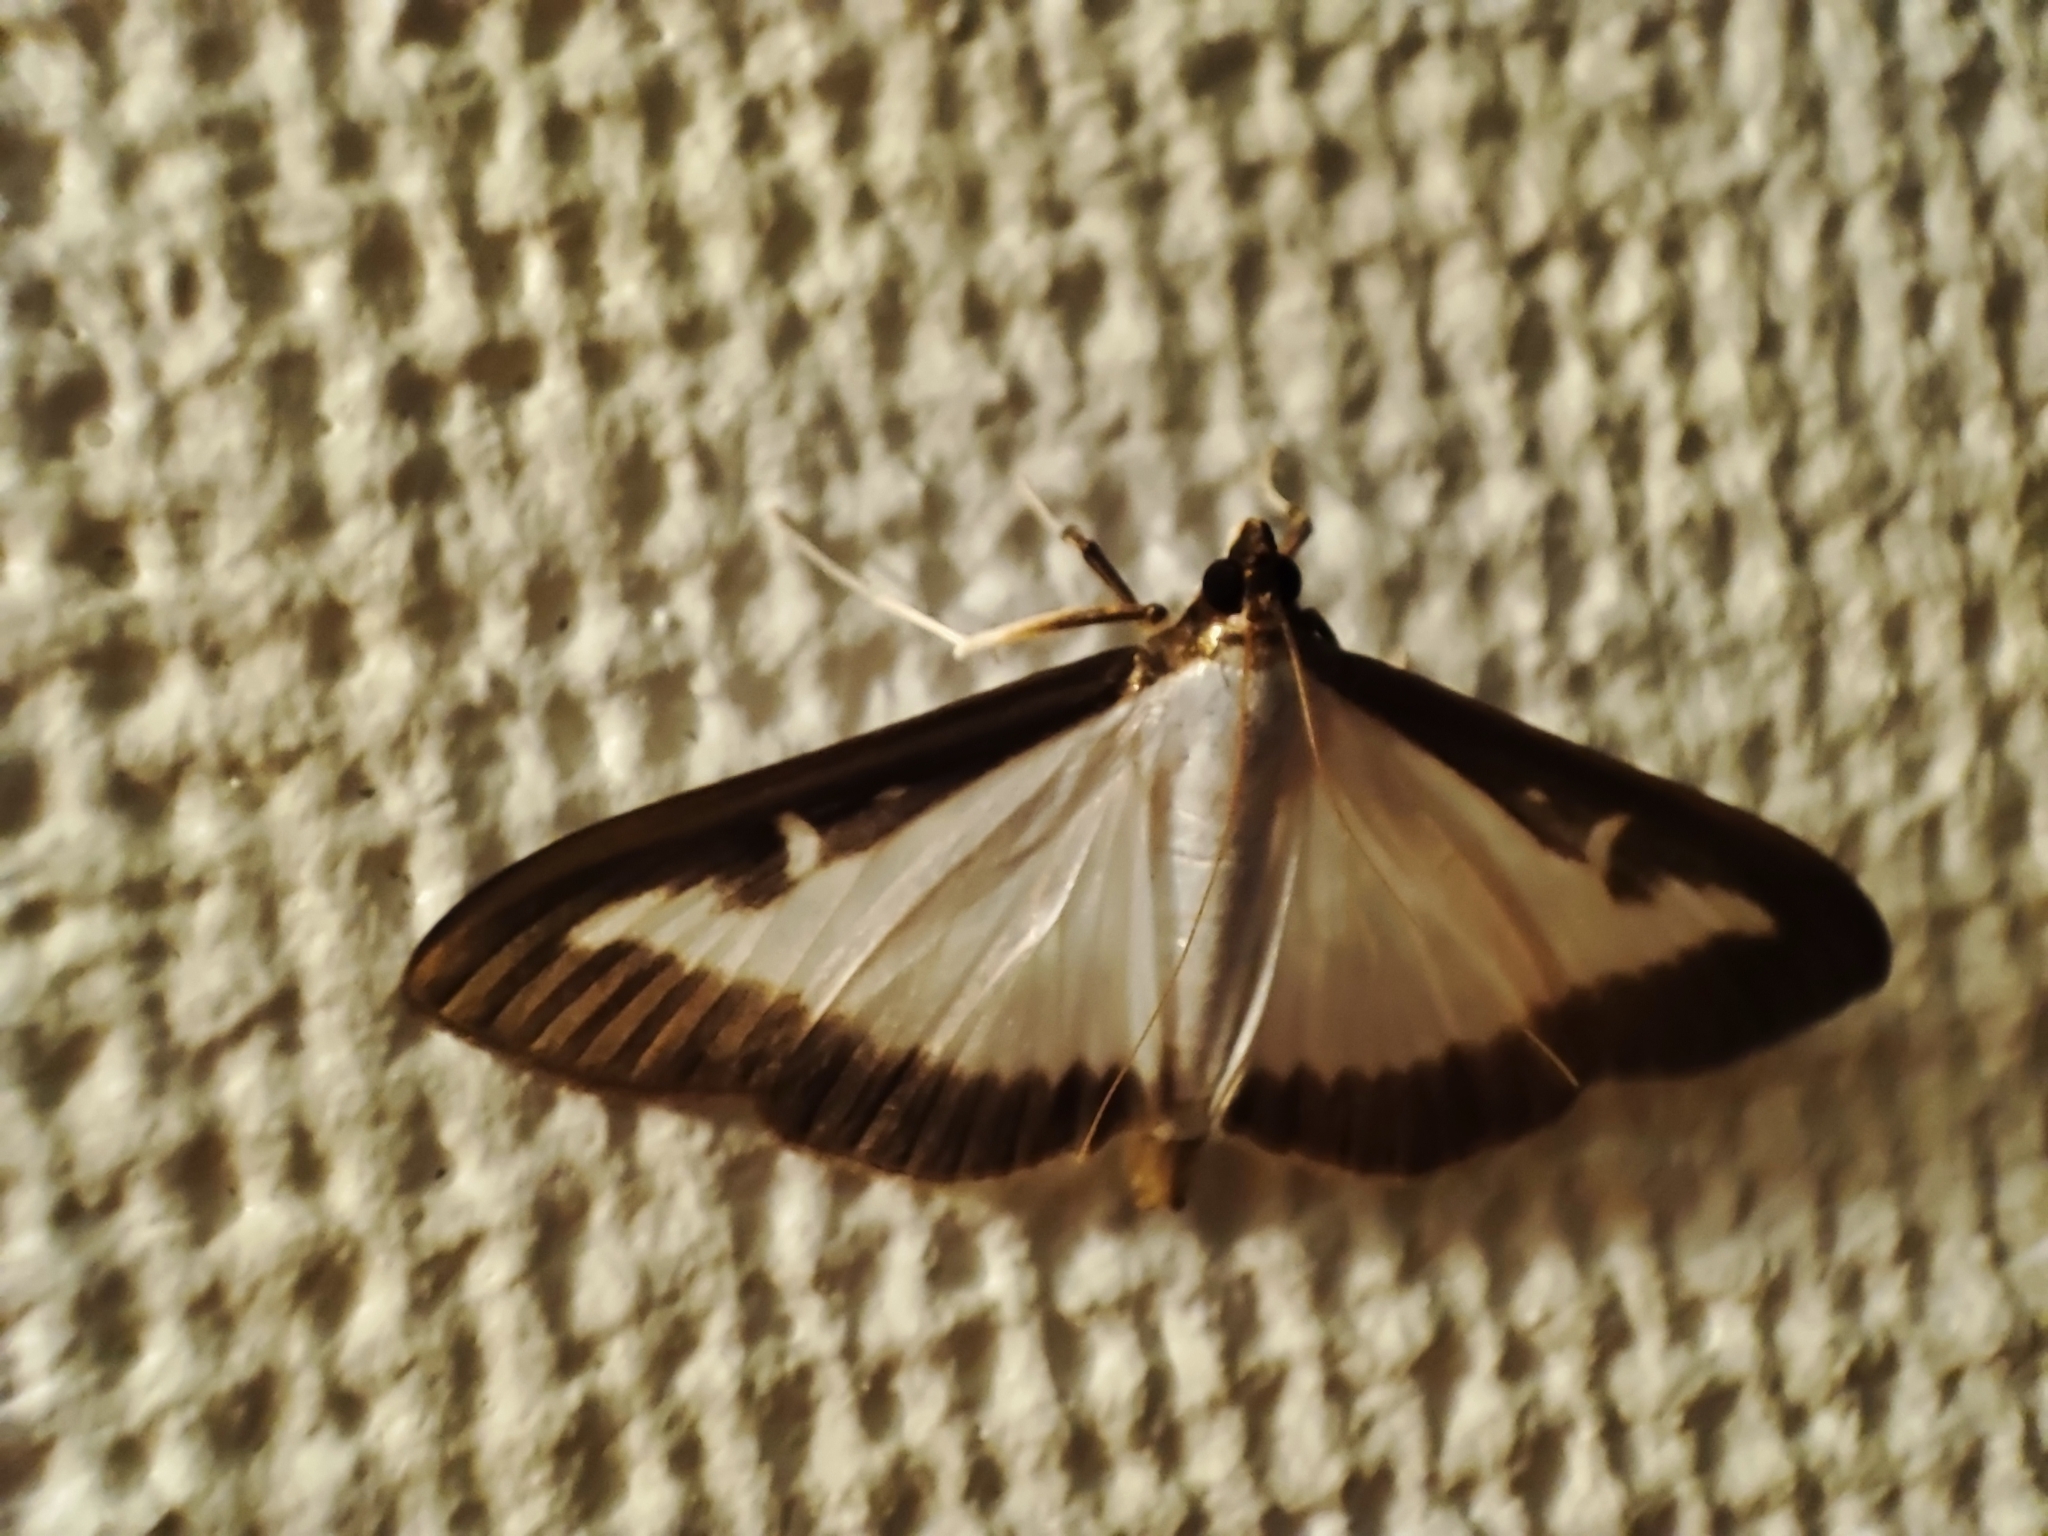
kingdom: Animalia
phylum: Arthropoda
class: Insecta
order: Lepidoptera
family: Crambidae
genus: Cydalima
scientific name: Cydalima perspectalis
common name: Box tree moth
